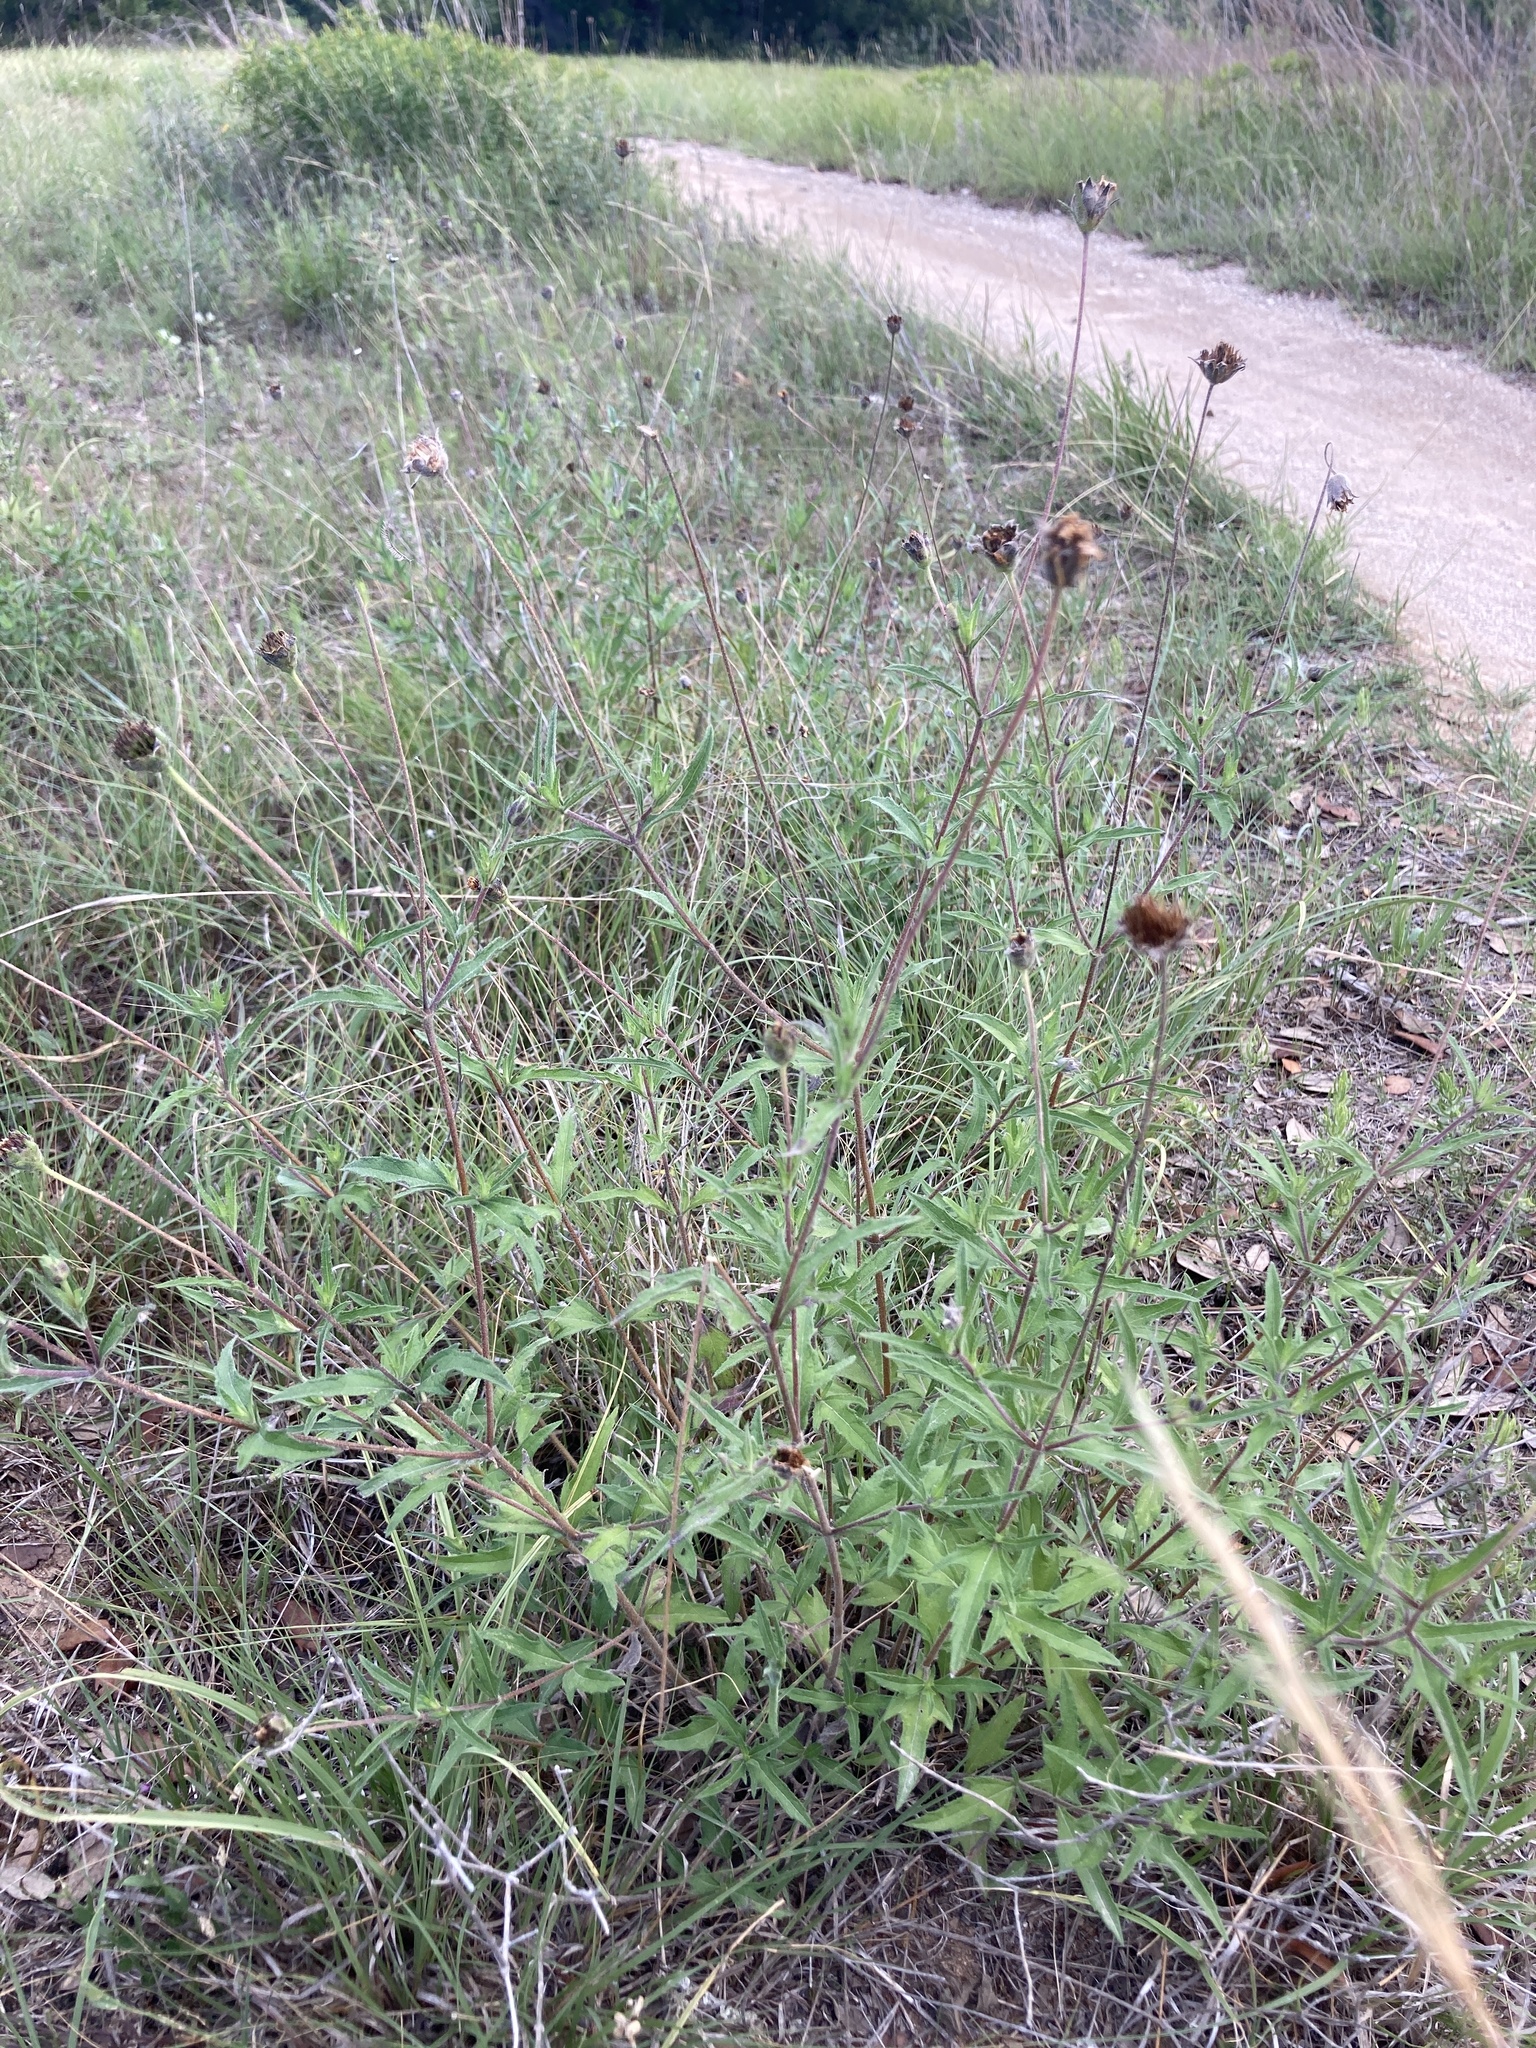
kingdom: Plantae
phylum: Tracheophyta
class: Magnoliopsida
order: Asterales
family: Asteraceae
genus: Wedelia
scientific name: Wedelia acapulcensis
